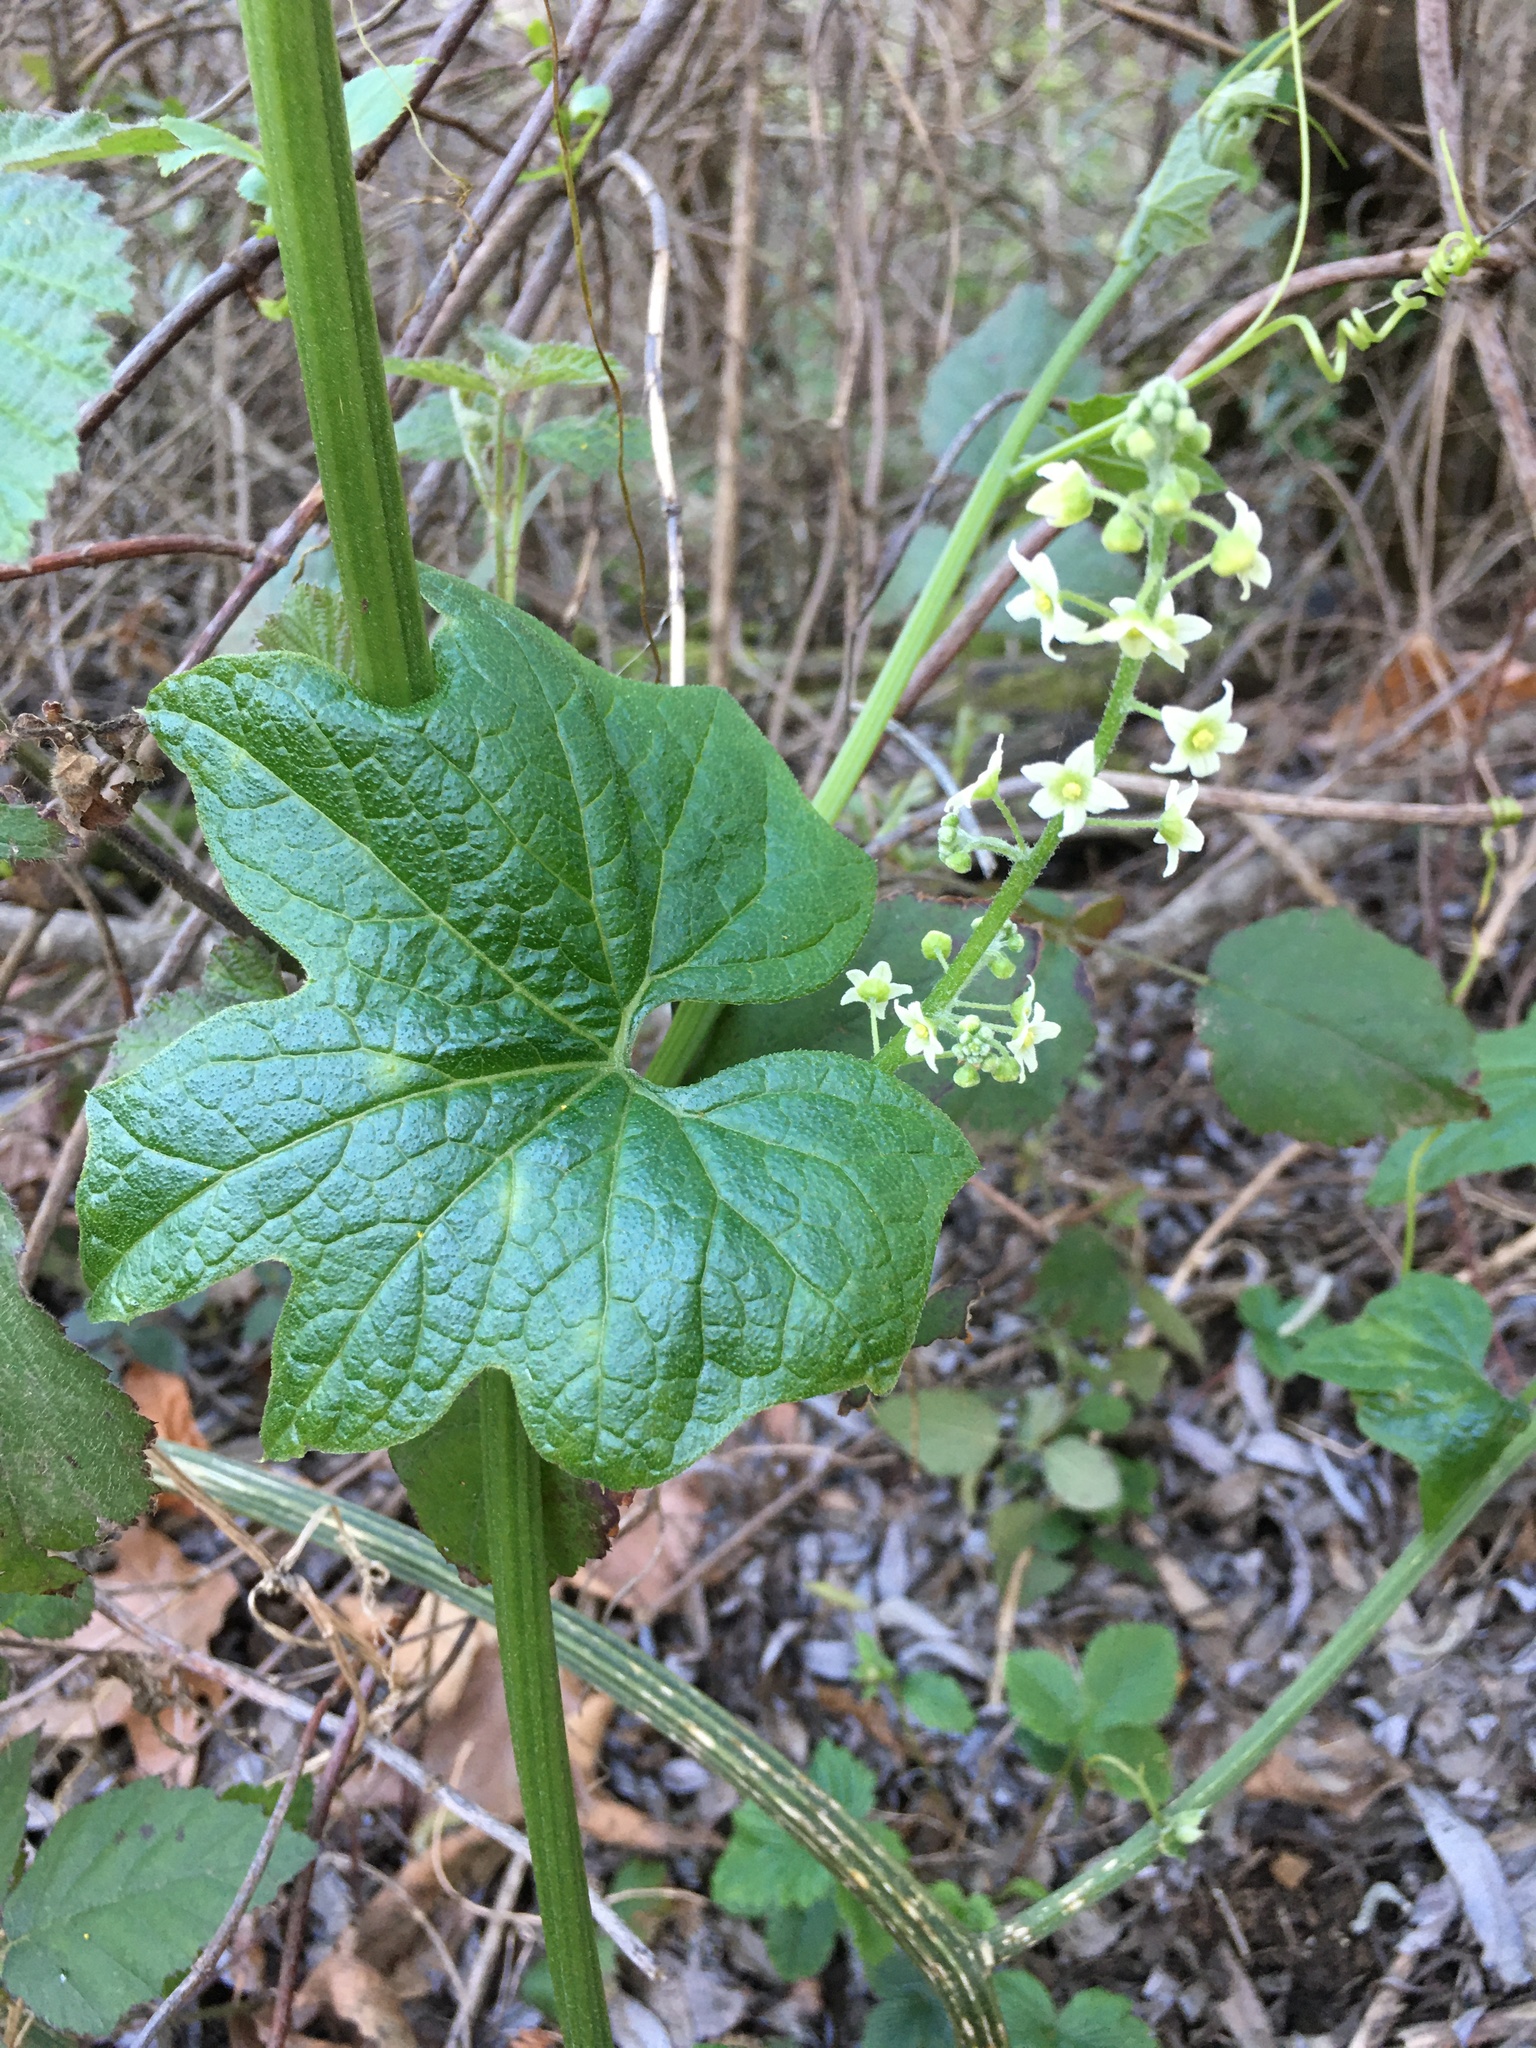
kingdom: Plantae
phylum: Tracheophyta
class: Magnoliopsida
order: Cucurbitales
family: Cucurbitaceae
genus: Marah
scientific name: Marah fabacea
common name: California manroot
